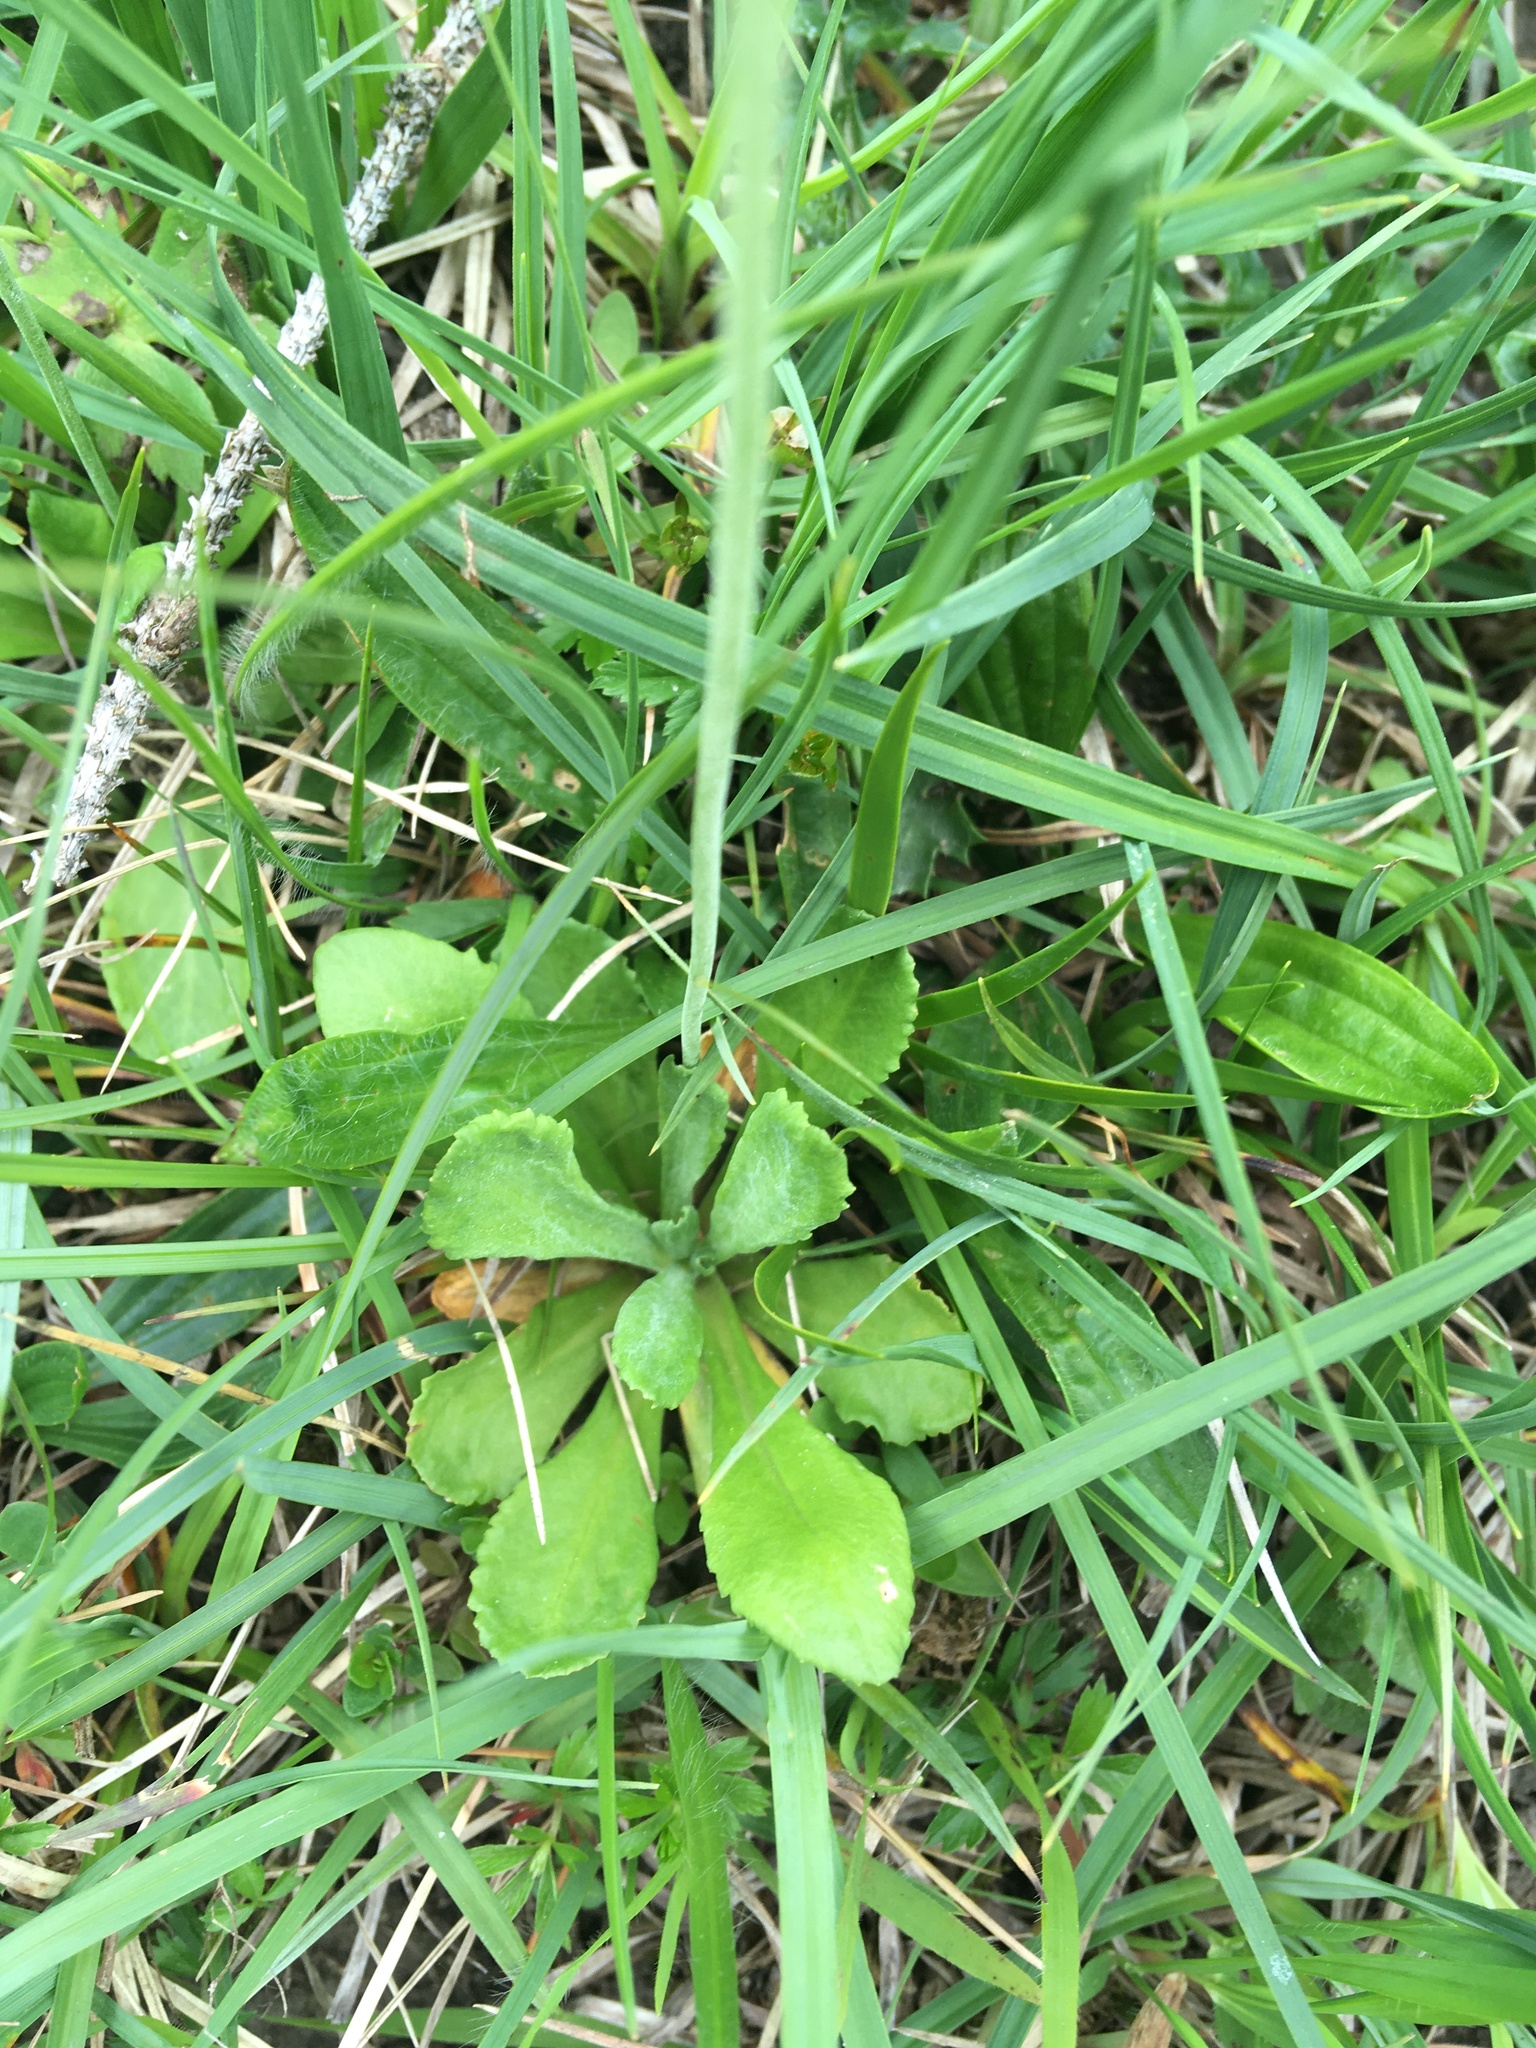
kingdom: Plantae
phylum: Tracheophyta
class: Magnoliopsida
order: Ericales
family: Primulaceae
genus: Primula
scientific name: Primula farinosa
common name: Bird's-eye primrose
